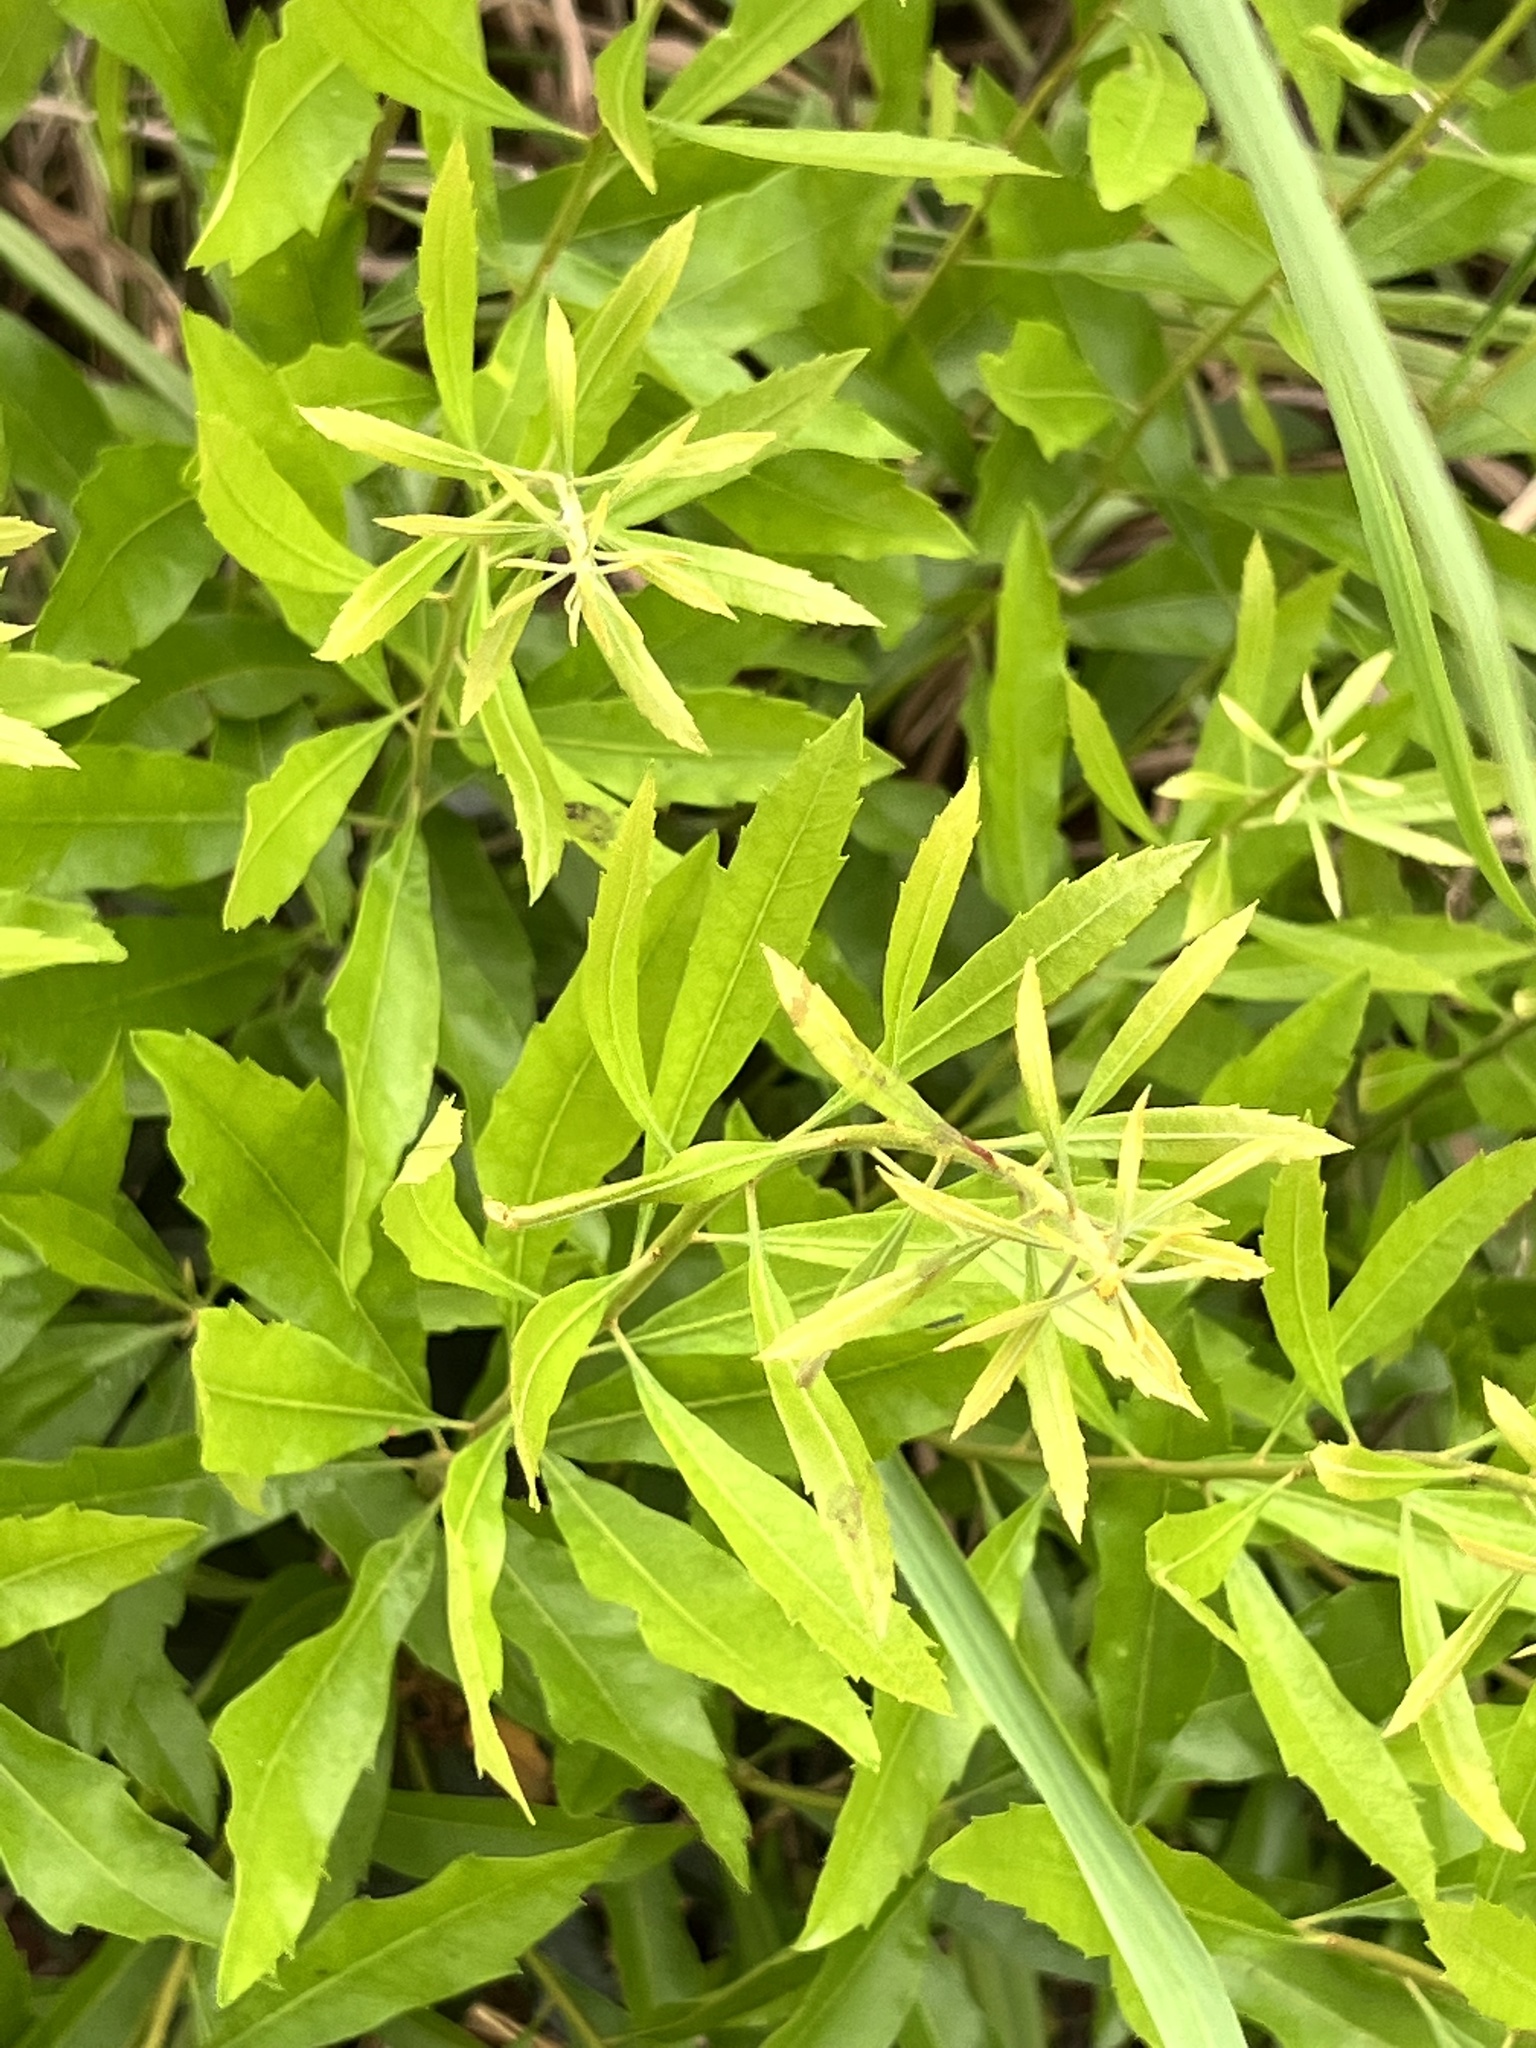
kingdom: Plantae
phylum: Tracheophyta
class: Magnoliopsida
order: Fagales
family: Myricaceae
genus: Morella
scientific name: Morella cerifera
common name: Wax myrtle
